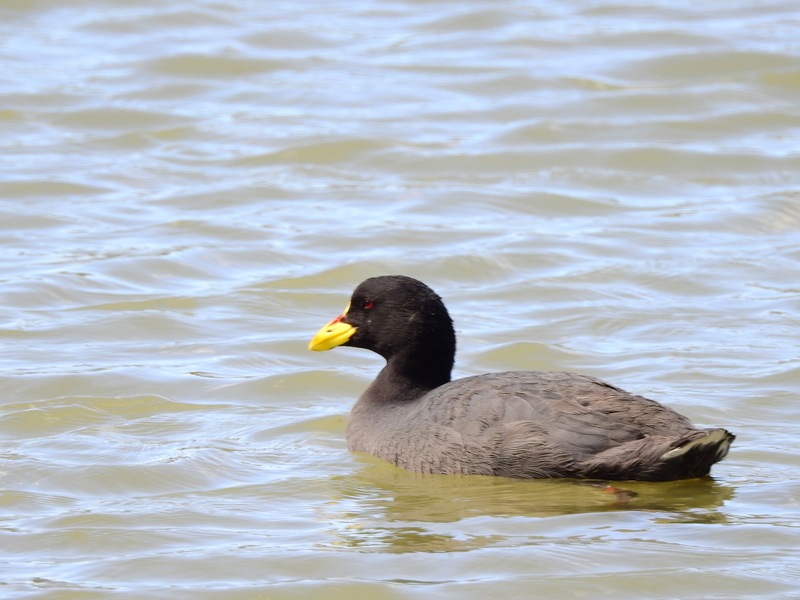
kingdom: Animalia
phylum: Chordata
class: Aves
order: Gruiformes
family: Rallidae
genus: Fulica
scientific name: Fulica armillata
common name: Red-gartered coot
